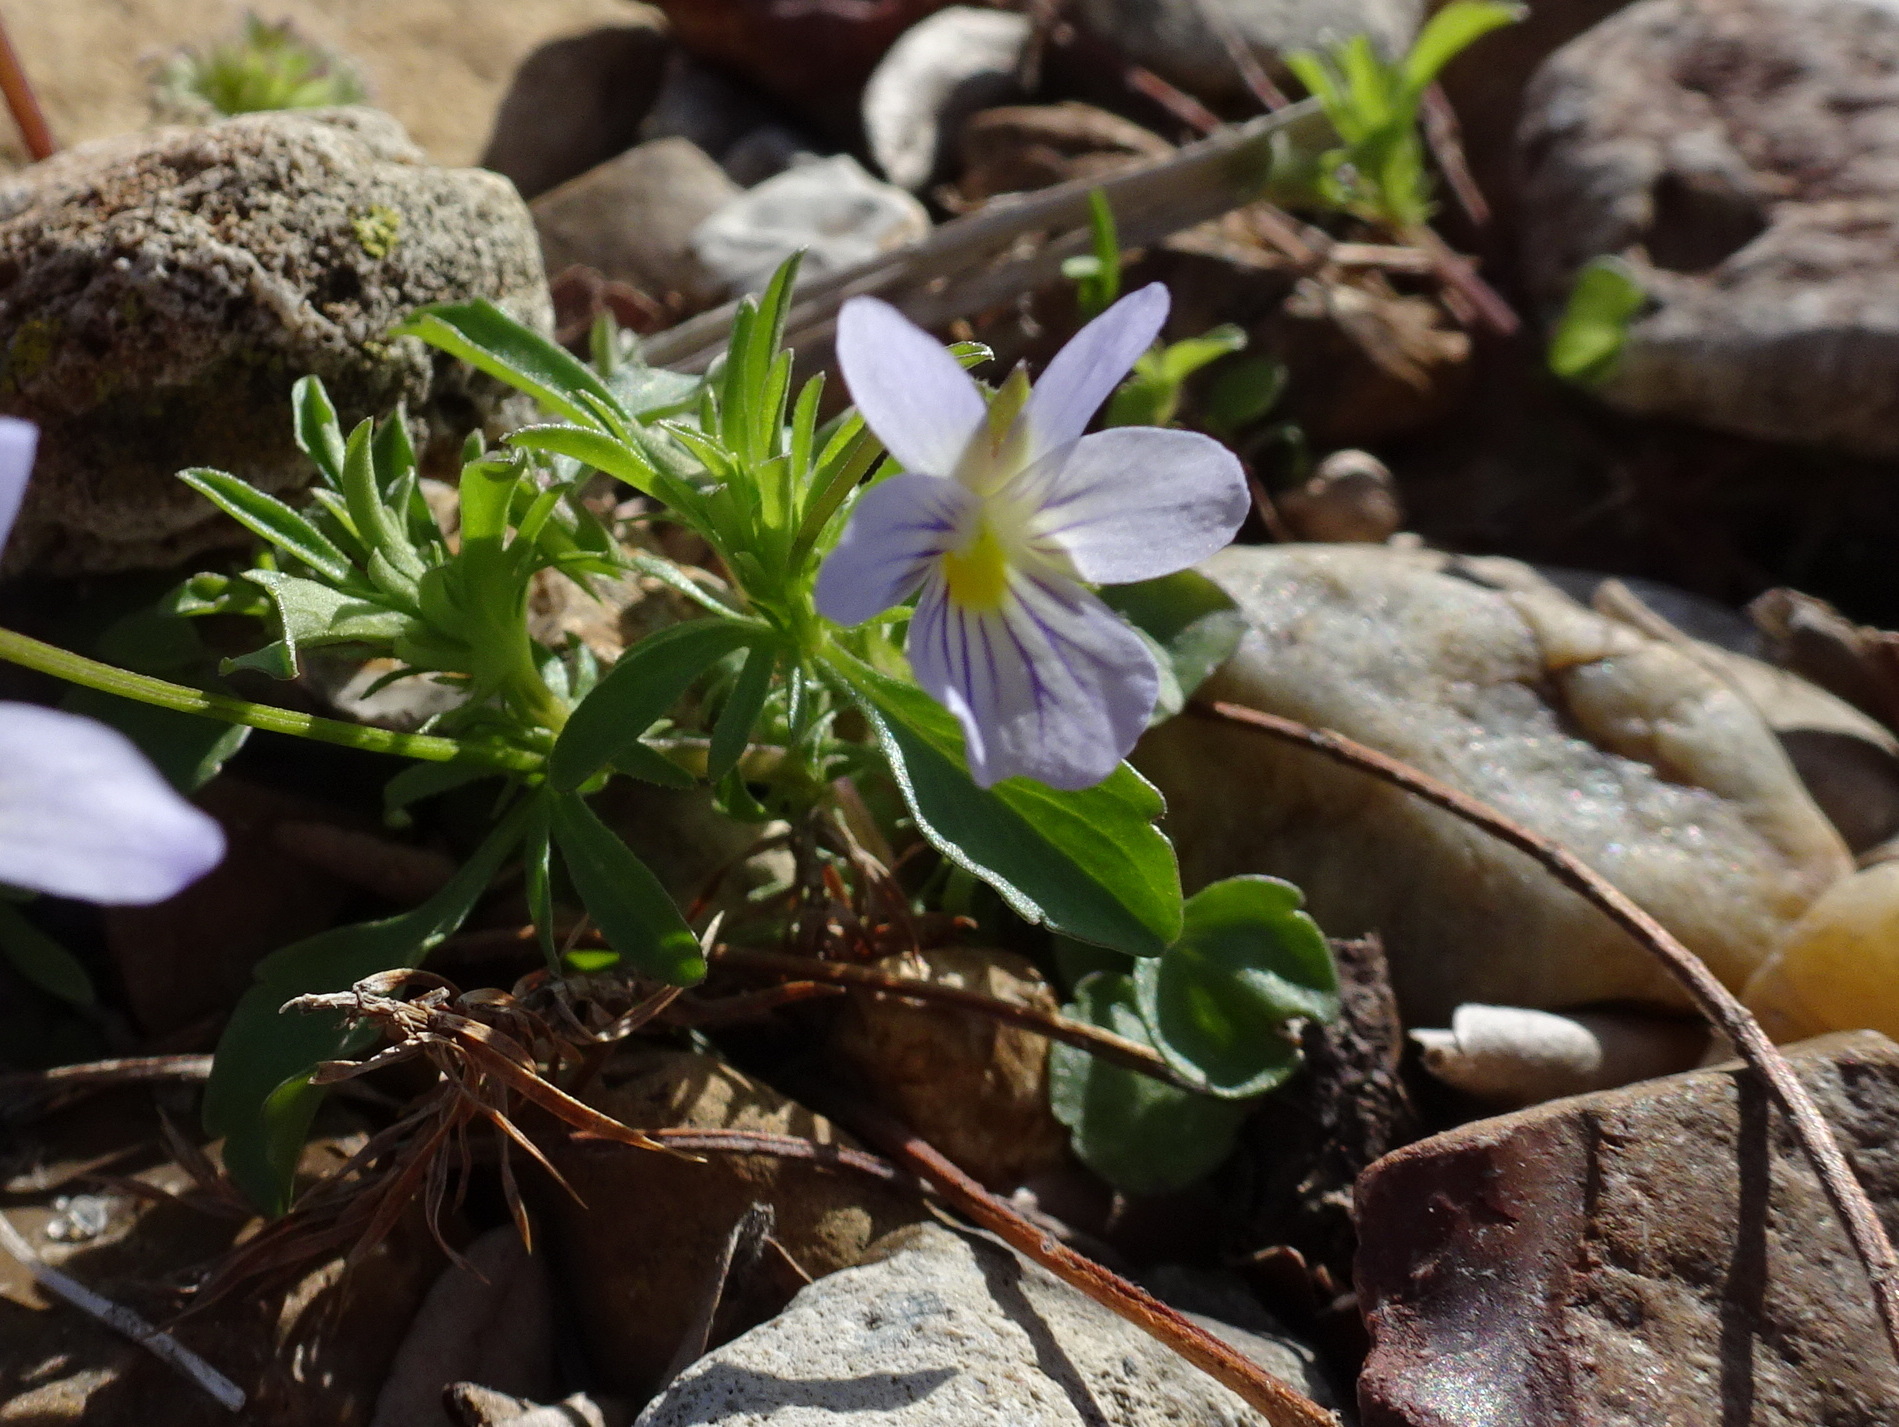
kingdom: Plantae
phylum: Tracheophyta
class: Magnoliopsida
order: Malpighiales
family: Violaceae
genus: Viola
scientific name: Viola rafinesquei
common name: American field pansy
